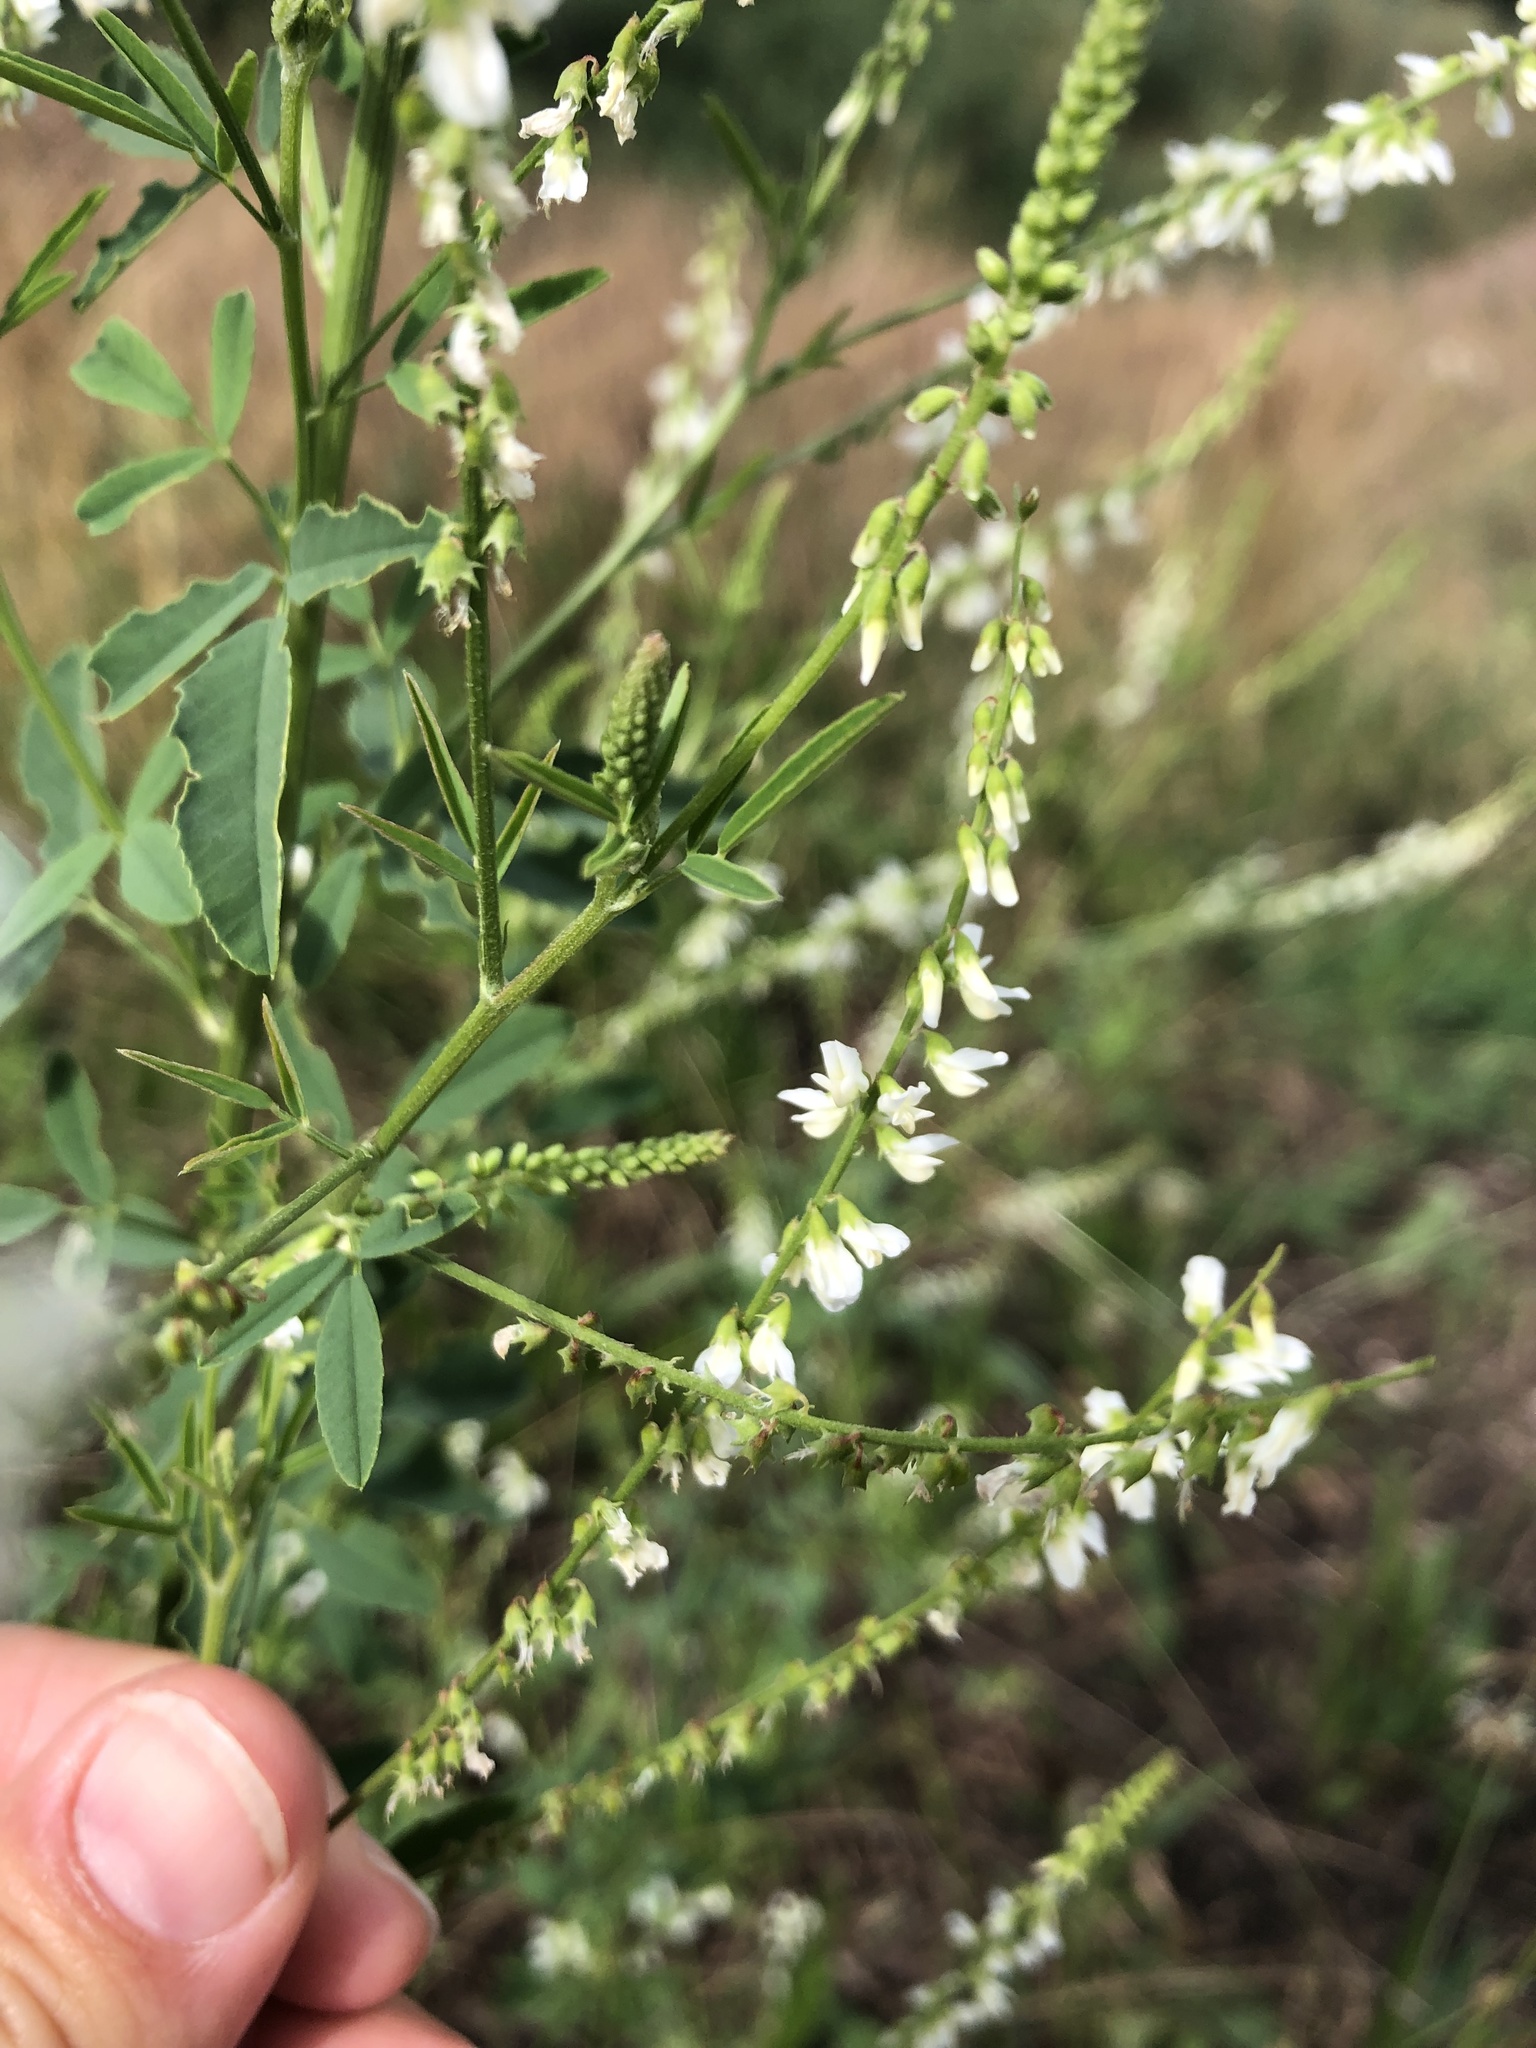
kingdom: Plantae
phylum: Tracheophyta
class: Magnoliopsida
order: Fabales
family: Fabaceae
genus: Melilotus
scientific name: Melilotus albus
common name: White melilot
